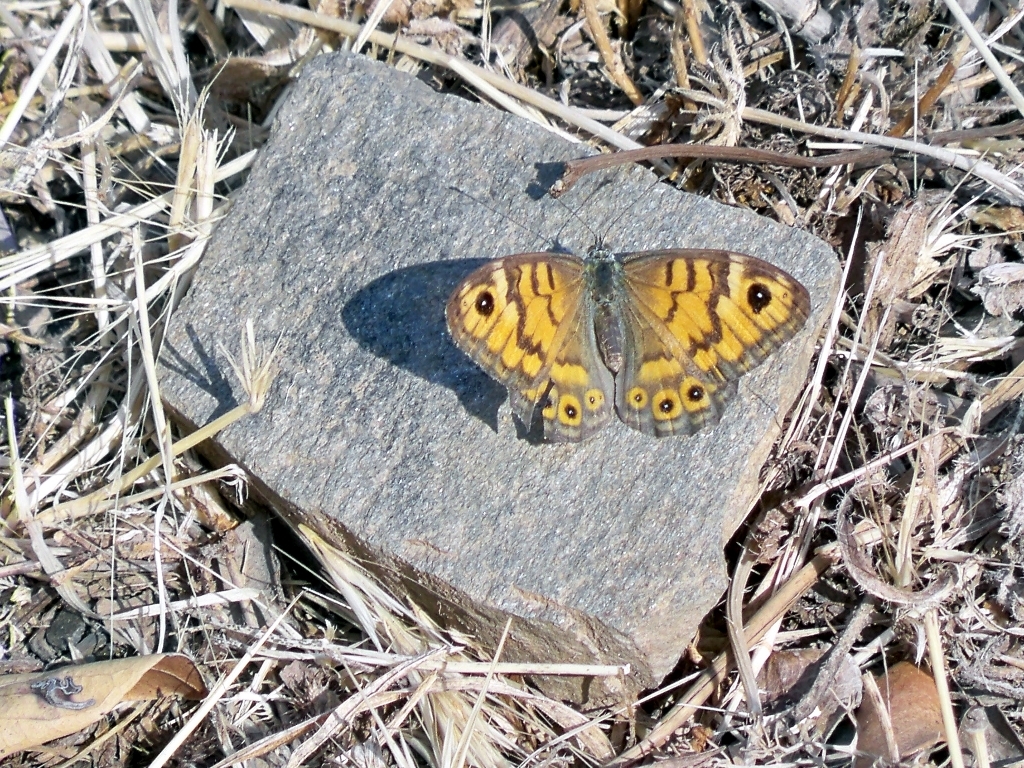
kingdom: Animalia
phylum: Arthropoda
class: Insecta
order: Lepidoptera
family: Nymphalidae
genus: Pararge
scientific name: Pararge Lasiommata megera
